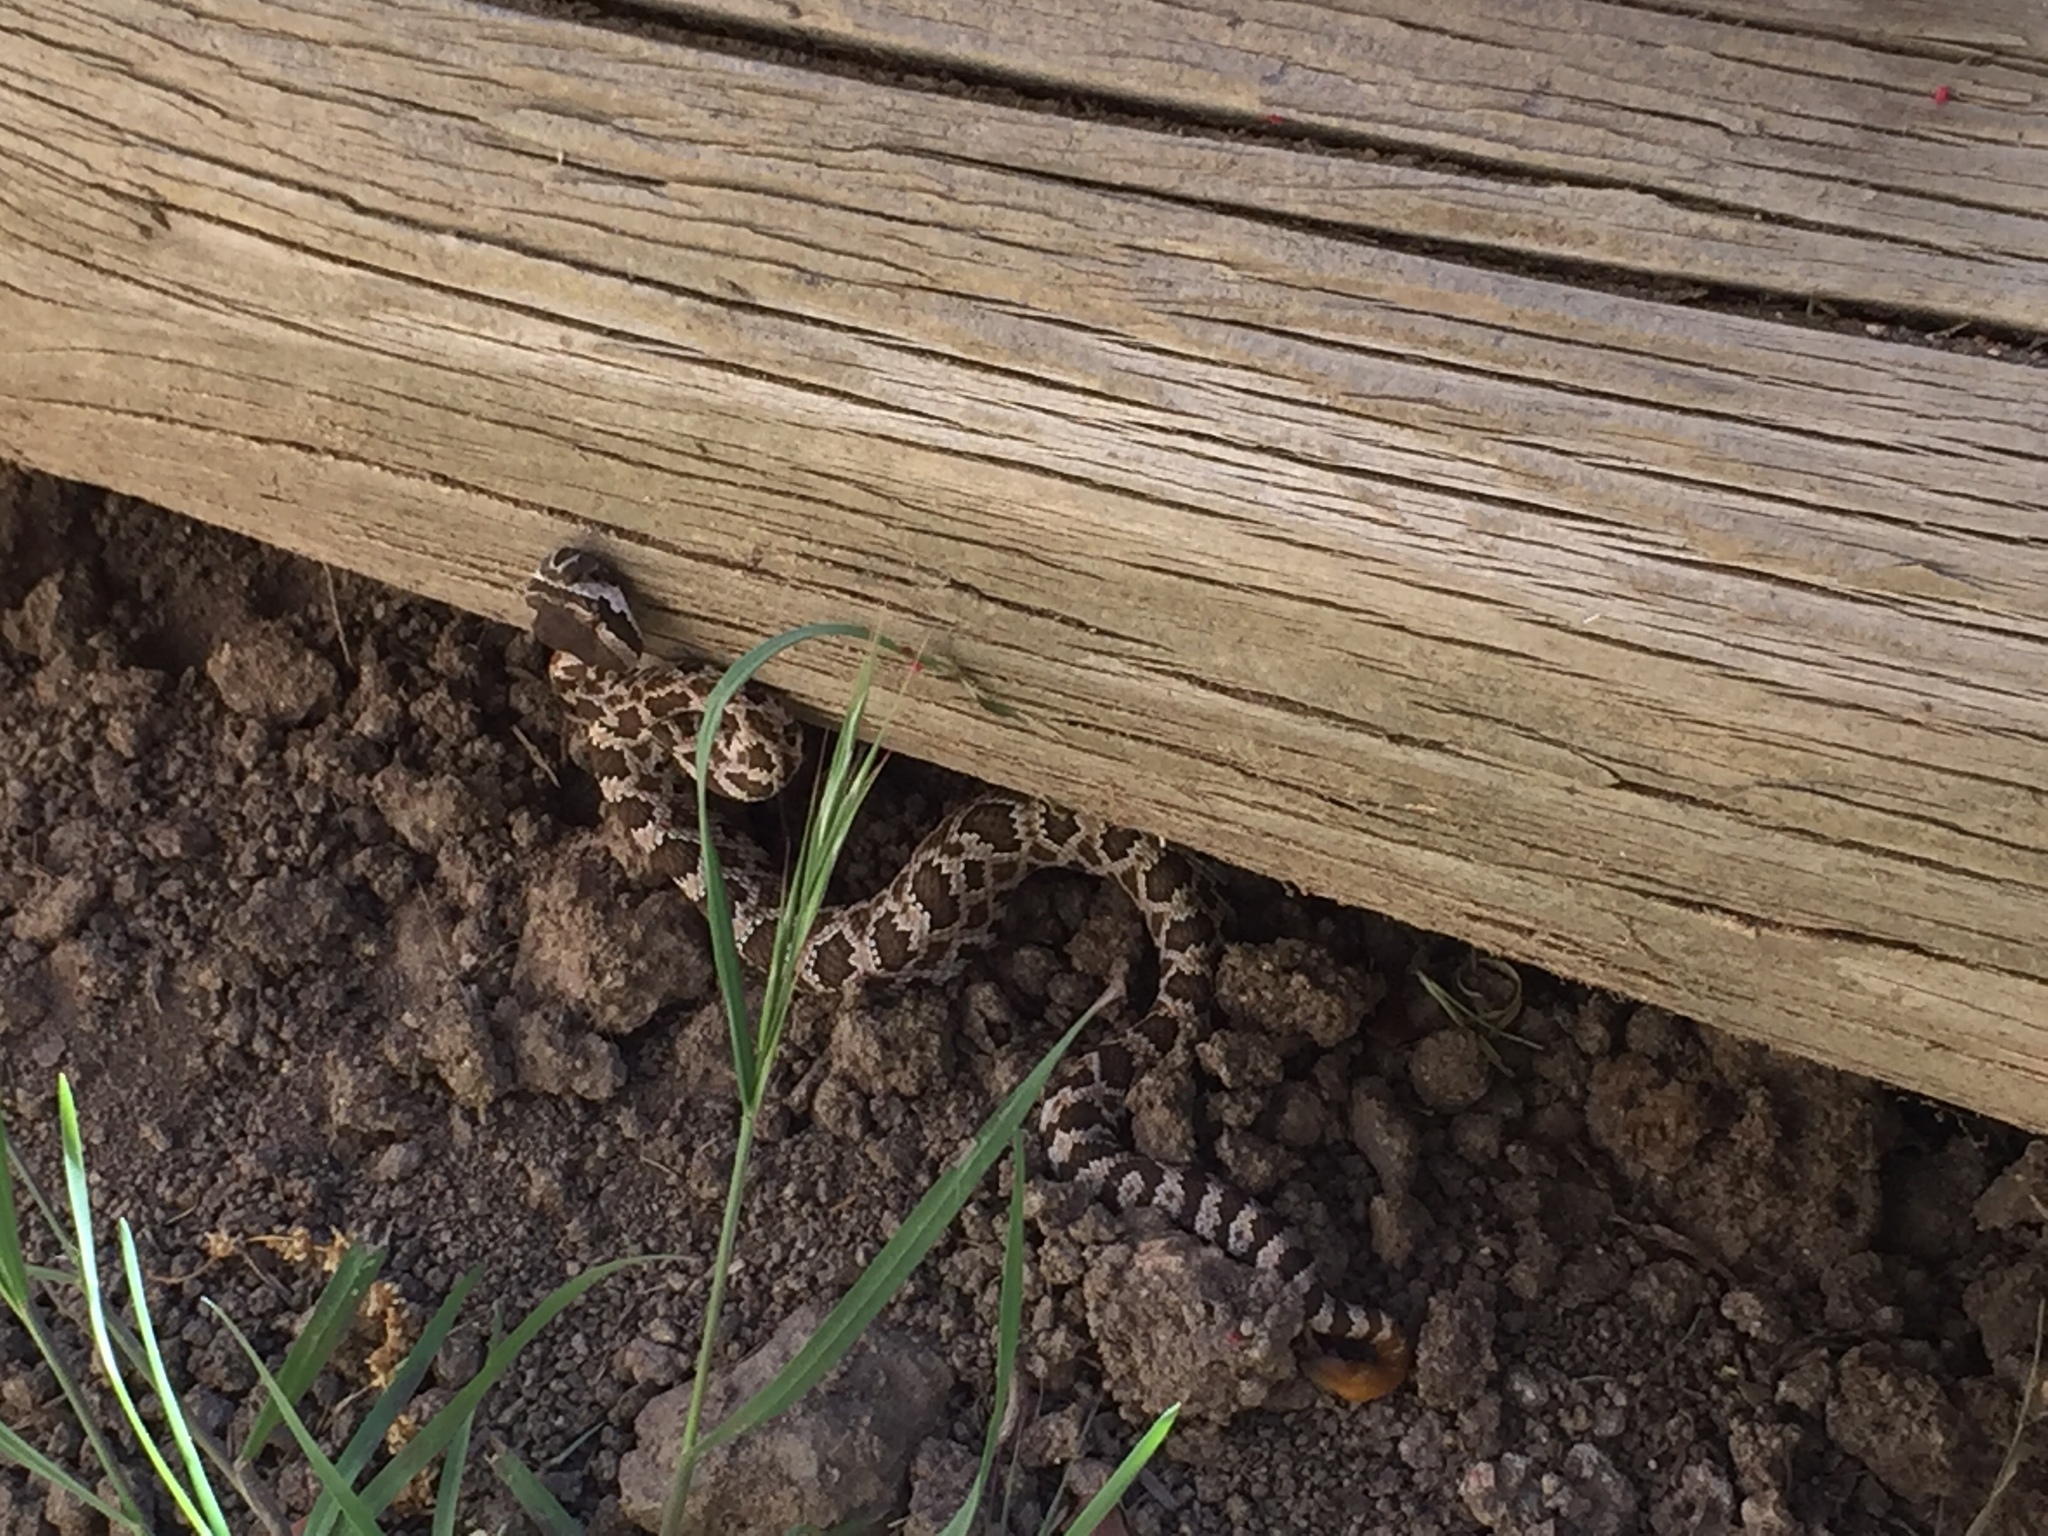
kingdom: Animalia
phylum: Chordata
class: Squamata
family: Viperidae
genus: Crotalus
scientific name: Crotalus oreganus
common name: Abyssus
